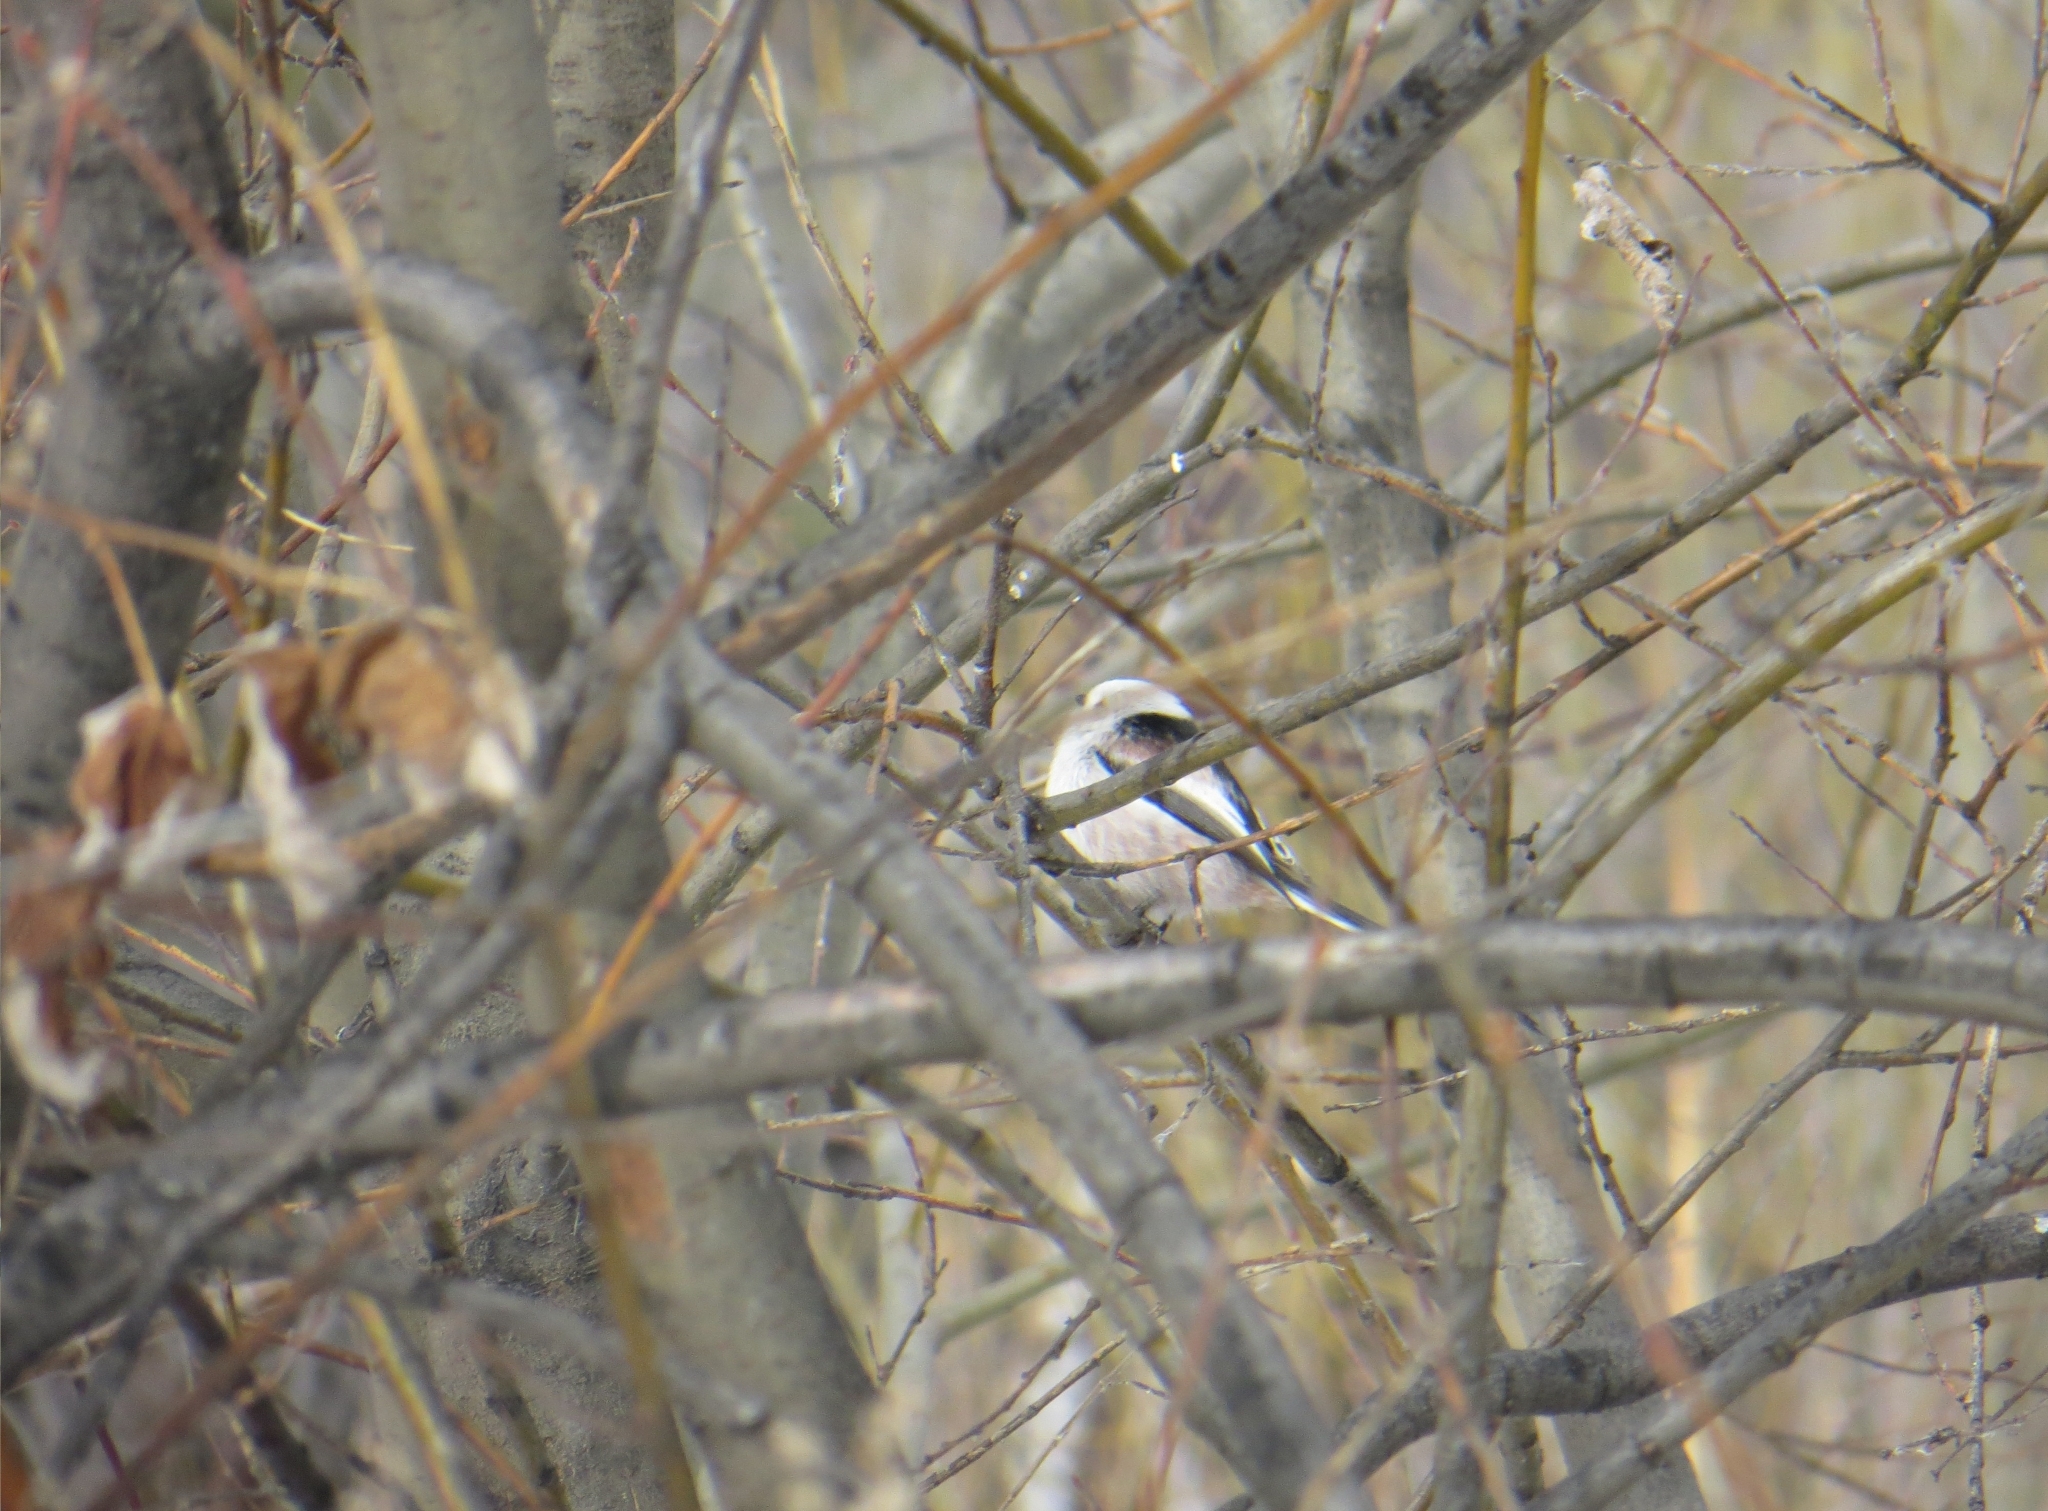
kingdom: Animalia
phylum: Chordata
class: Aves
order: Passeriformes
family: Aegithalidae
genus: Aegithalos
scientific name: Aegithalos caudatus
